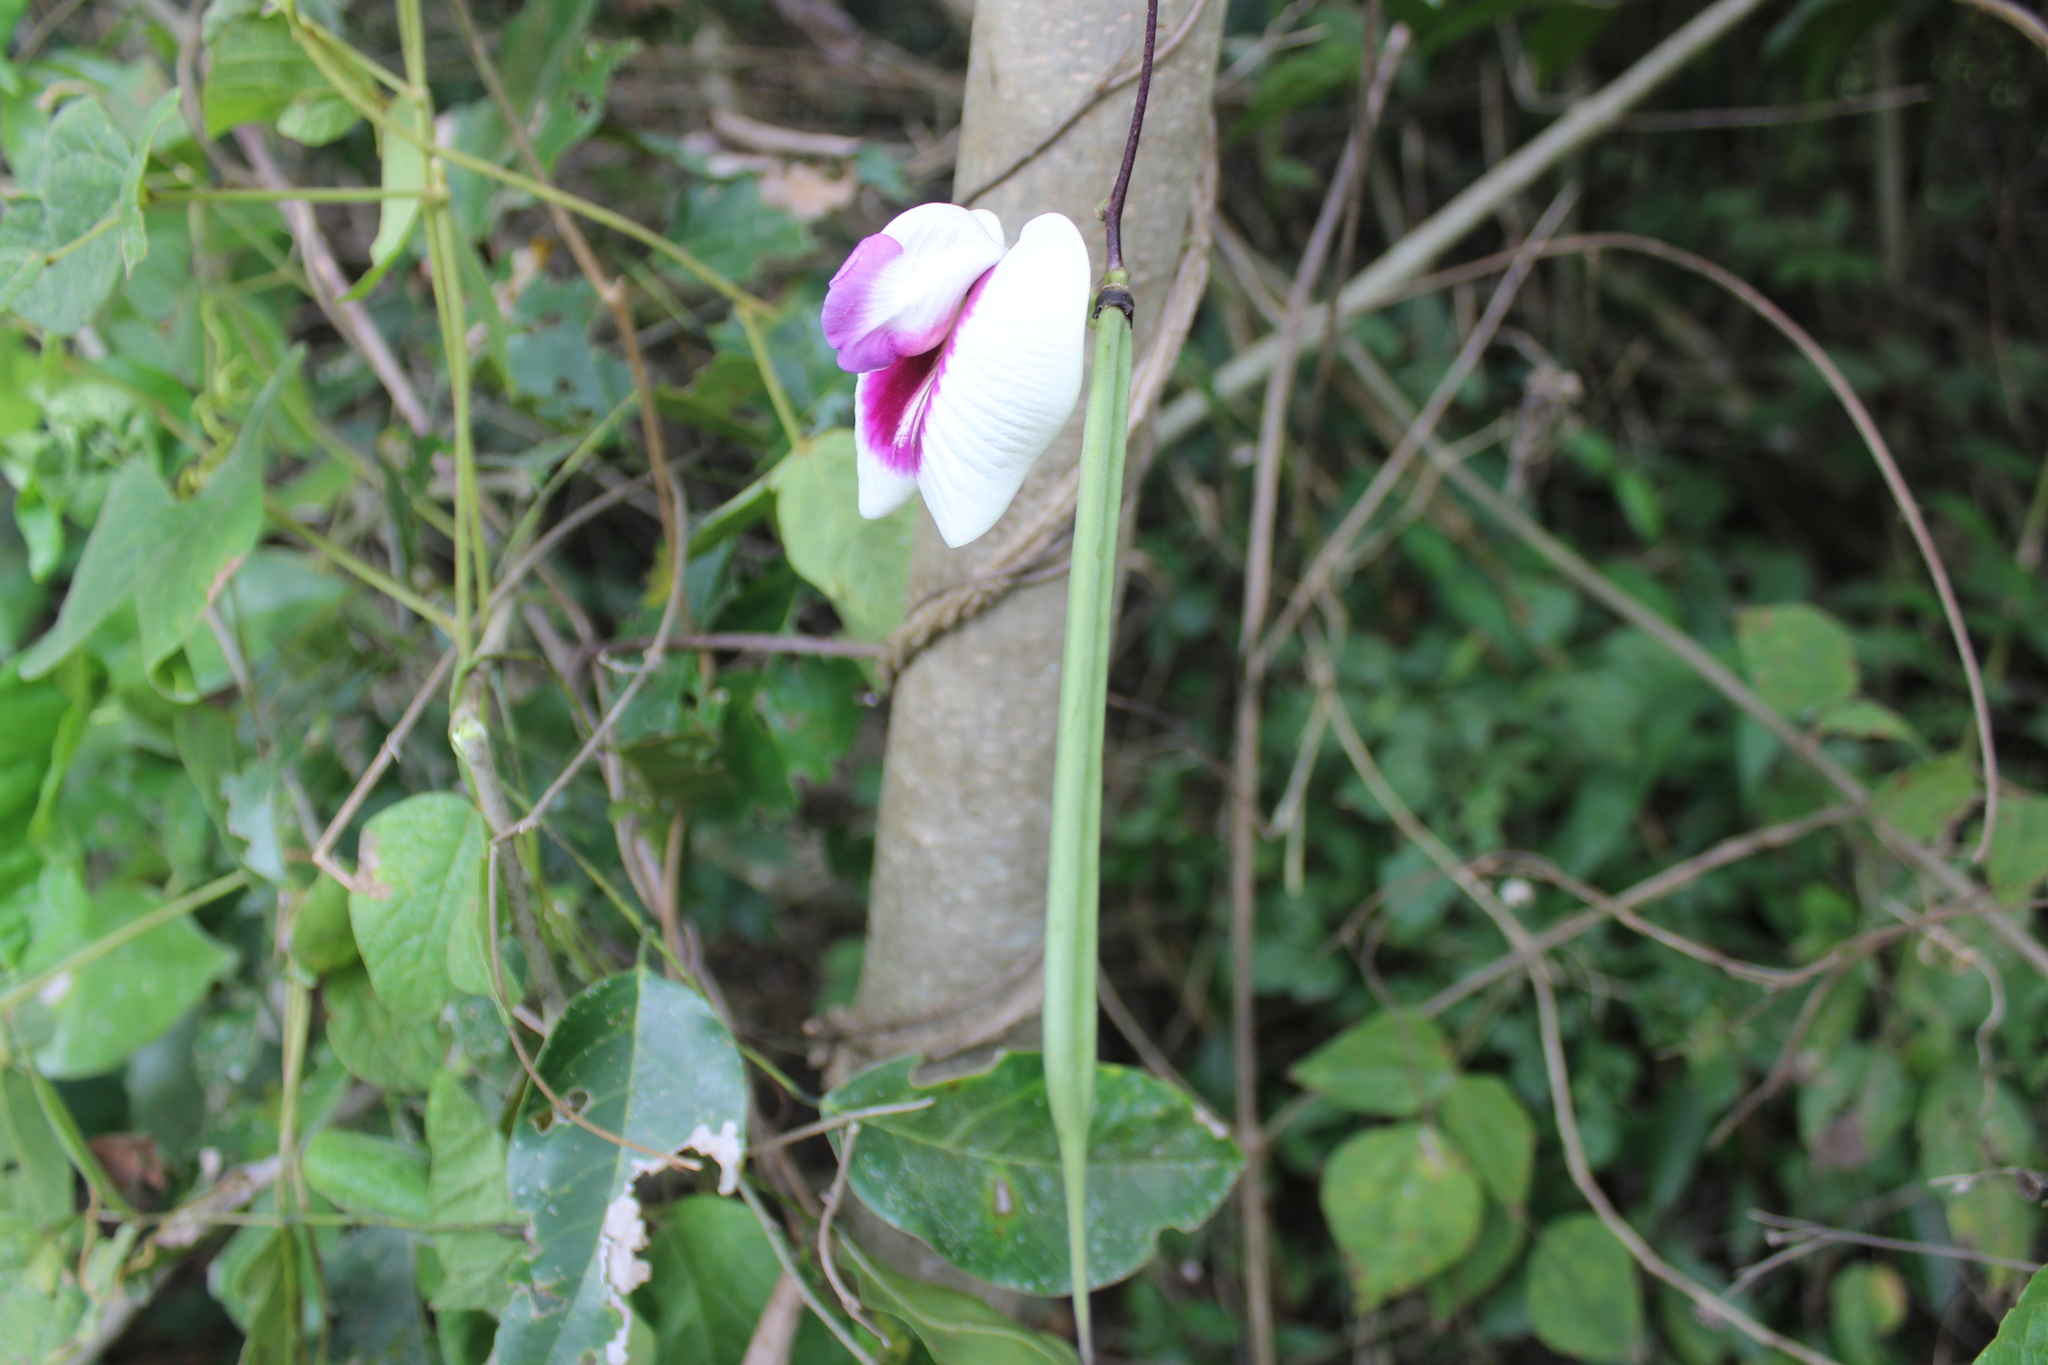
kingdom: Plantae
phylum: Tracheophyta
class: Magnoliopsida
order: Fabales
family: Fabaceae
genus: Centrosema
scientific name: Centrosema plumieri
